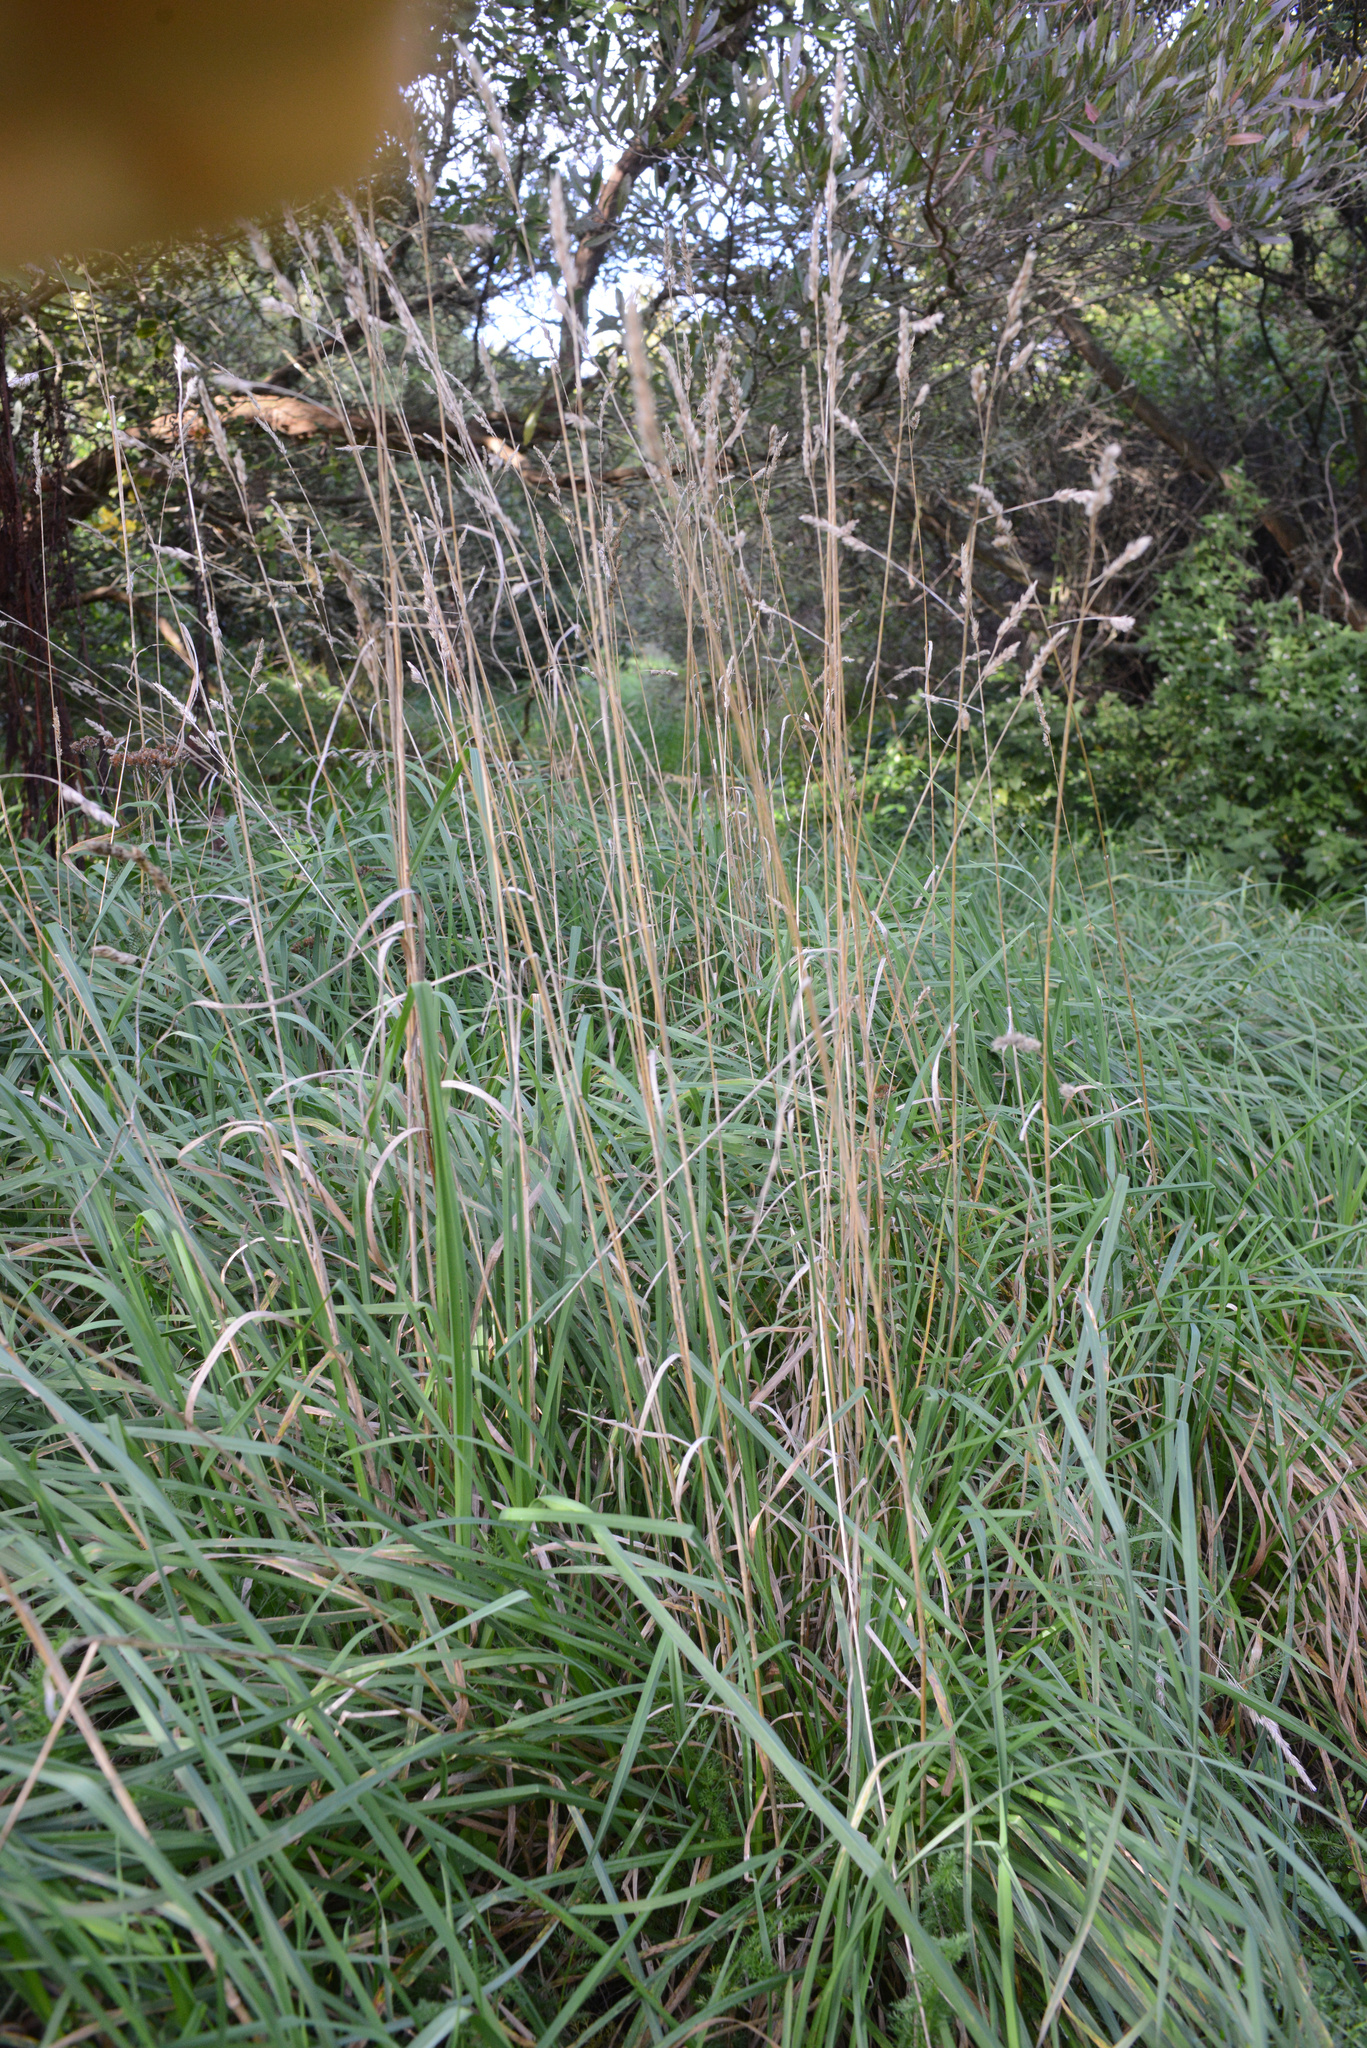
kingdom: Plantae
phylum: Tracheophyta
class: Liliopsida
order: Poales
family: Poaceae
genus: Dactylis
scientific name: Dactylis glomerata
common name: Orchardgrass
